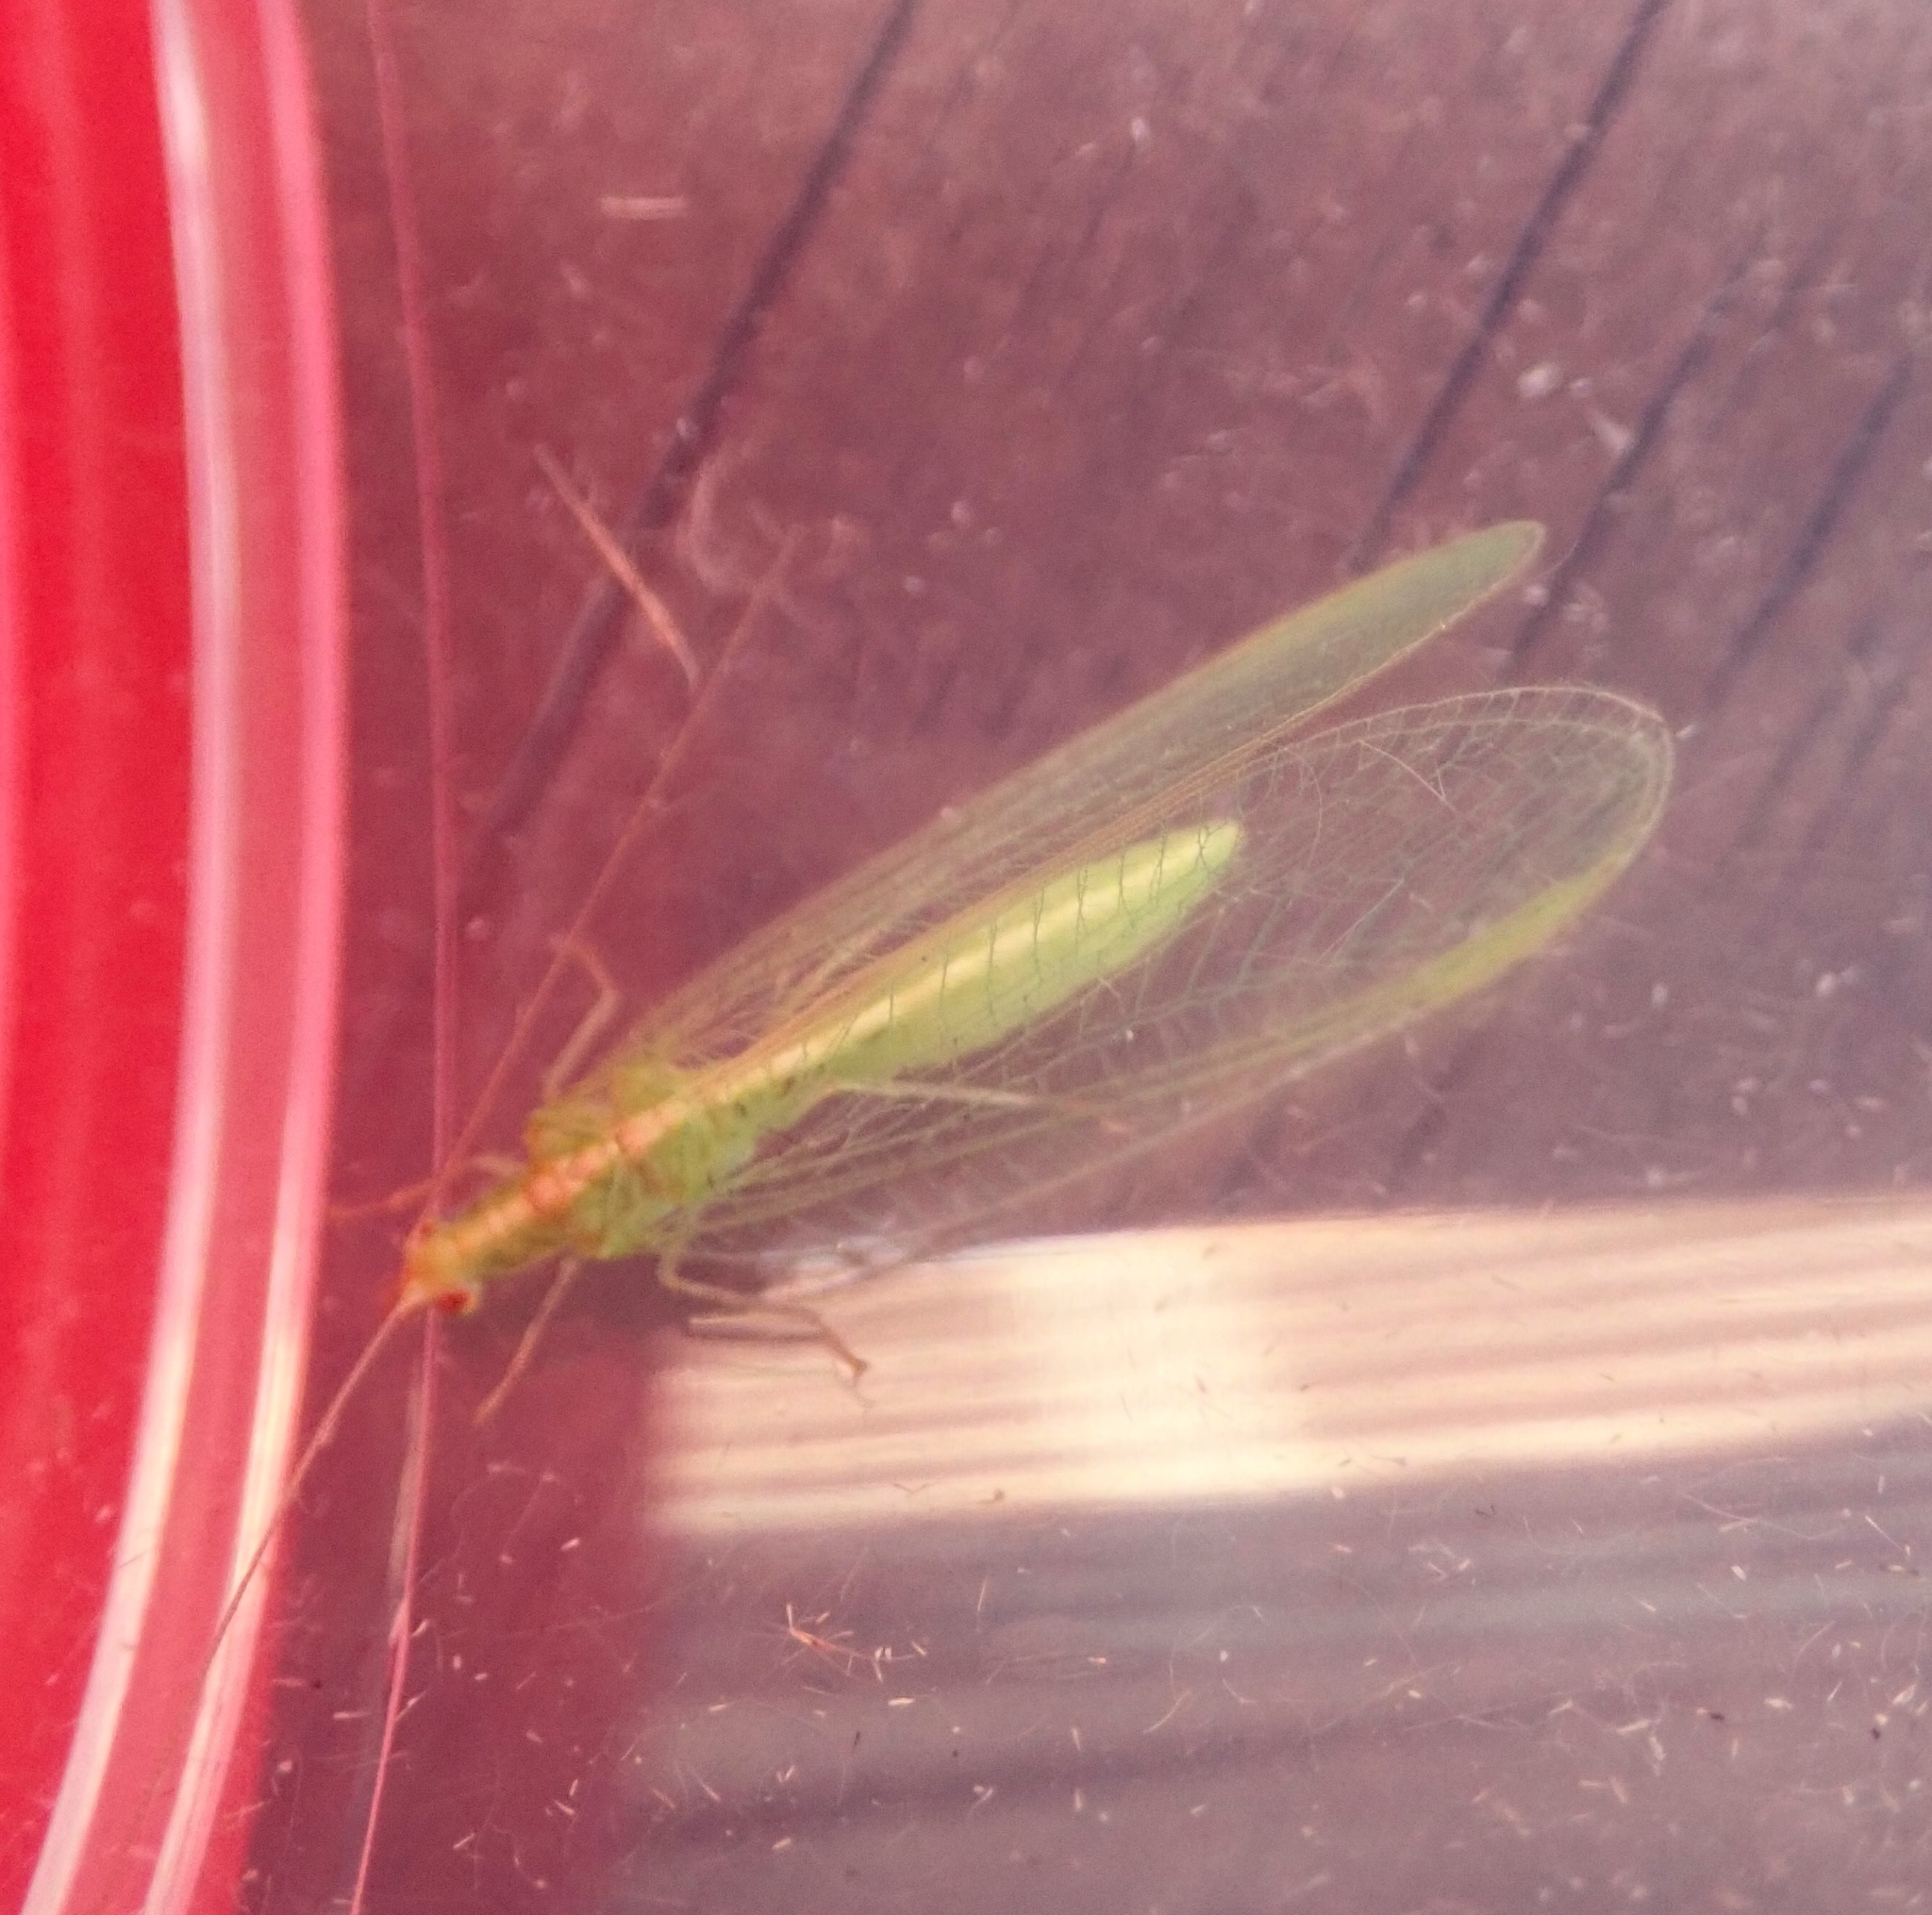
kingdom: Animalia
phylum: Arthropoda
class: Insecta
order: Neuroptera
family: Chrysopidae
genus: Chrysoperla
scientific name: Chrysoperla
